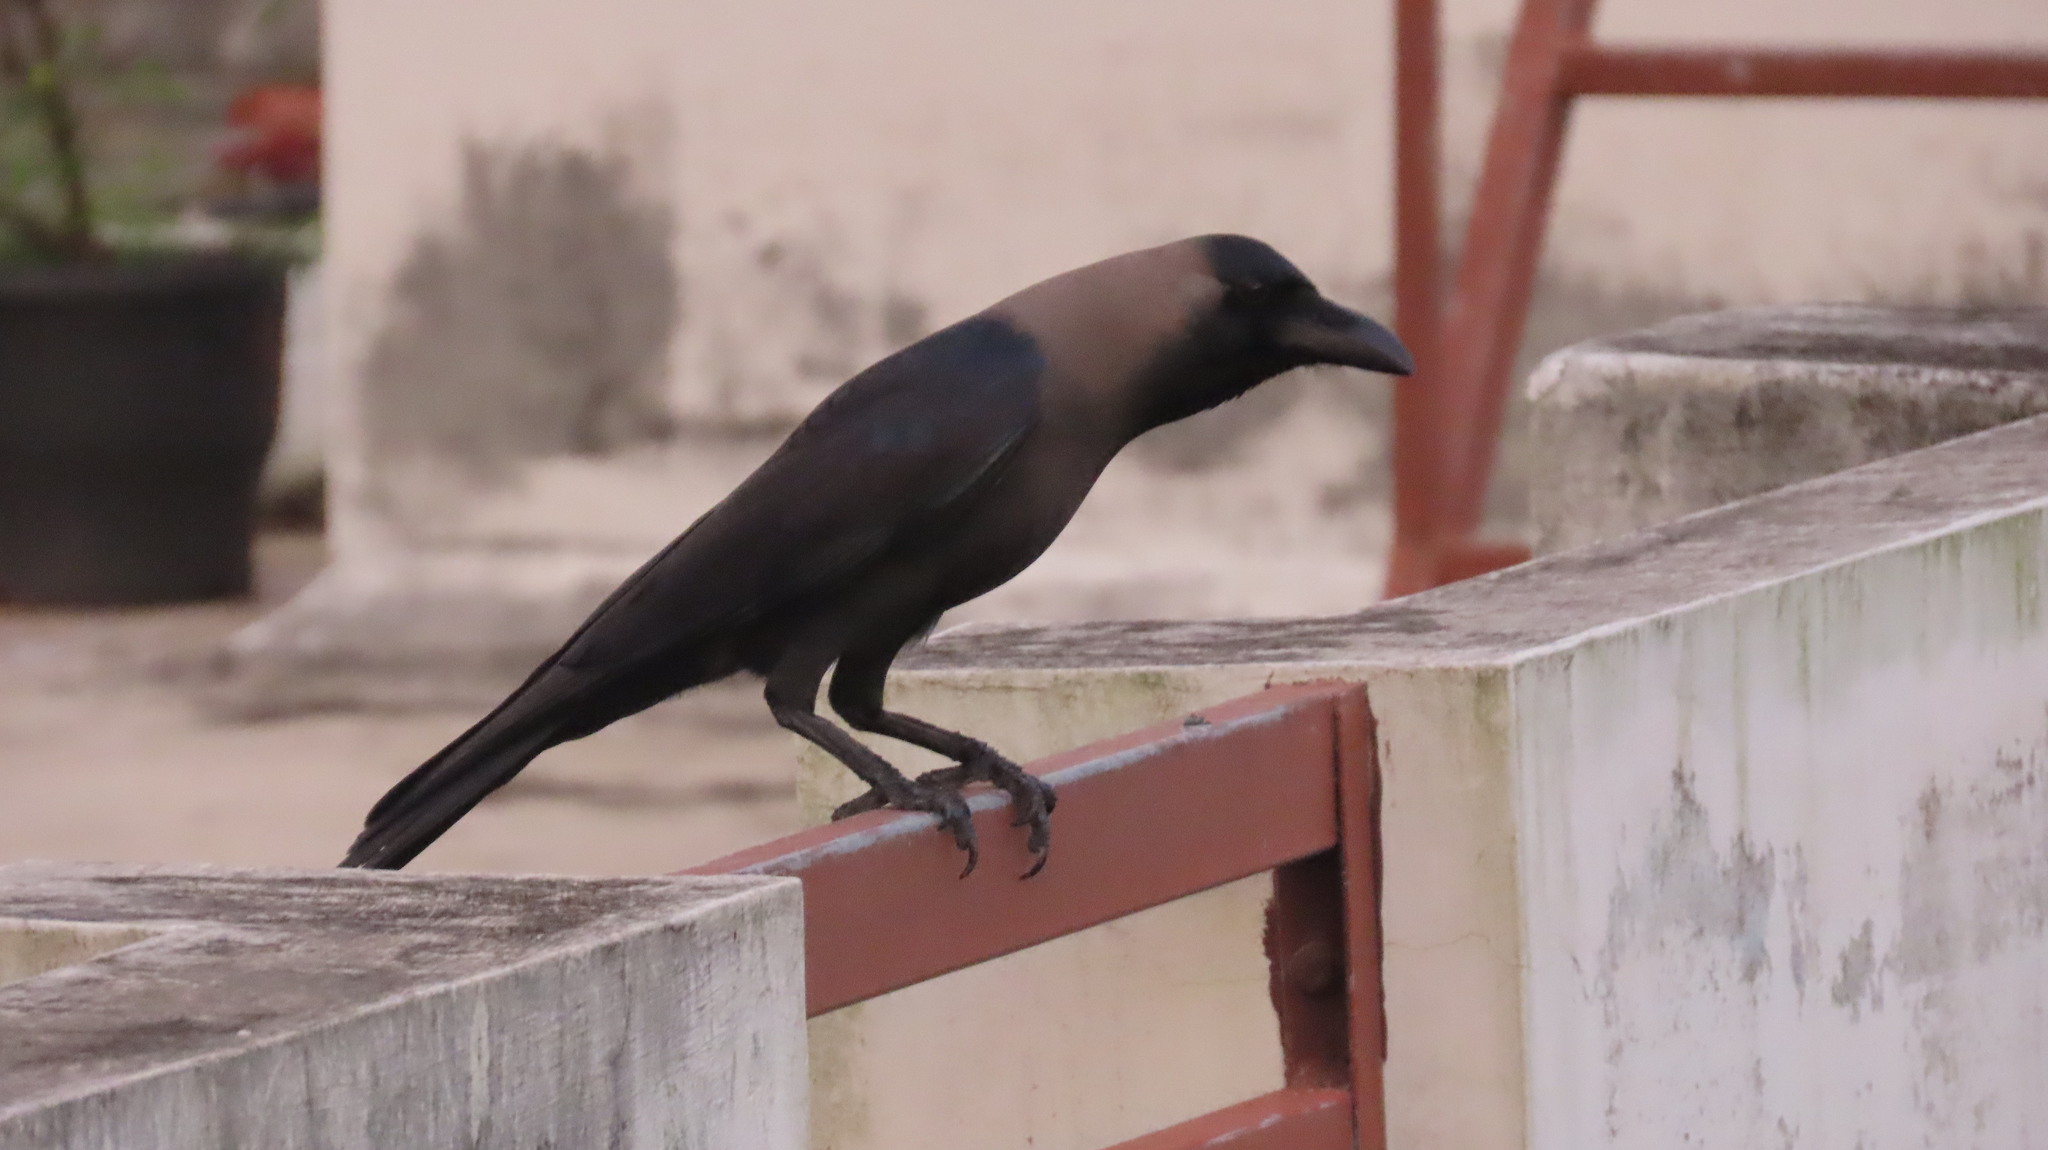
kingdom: Animalia
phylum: Chordata
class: Aves
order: Passeriformes
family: Corvidae
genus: Corvus
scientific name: Corvus splendens
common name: House crow
